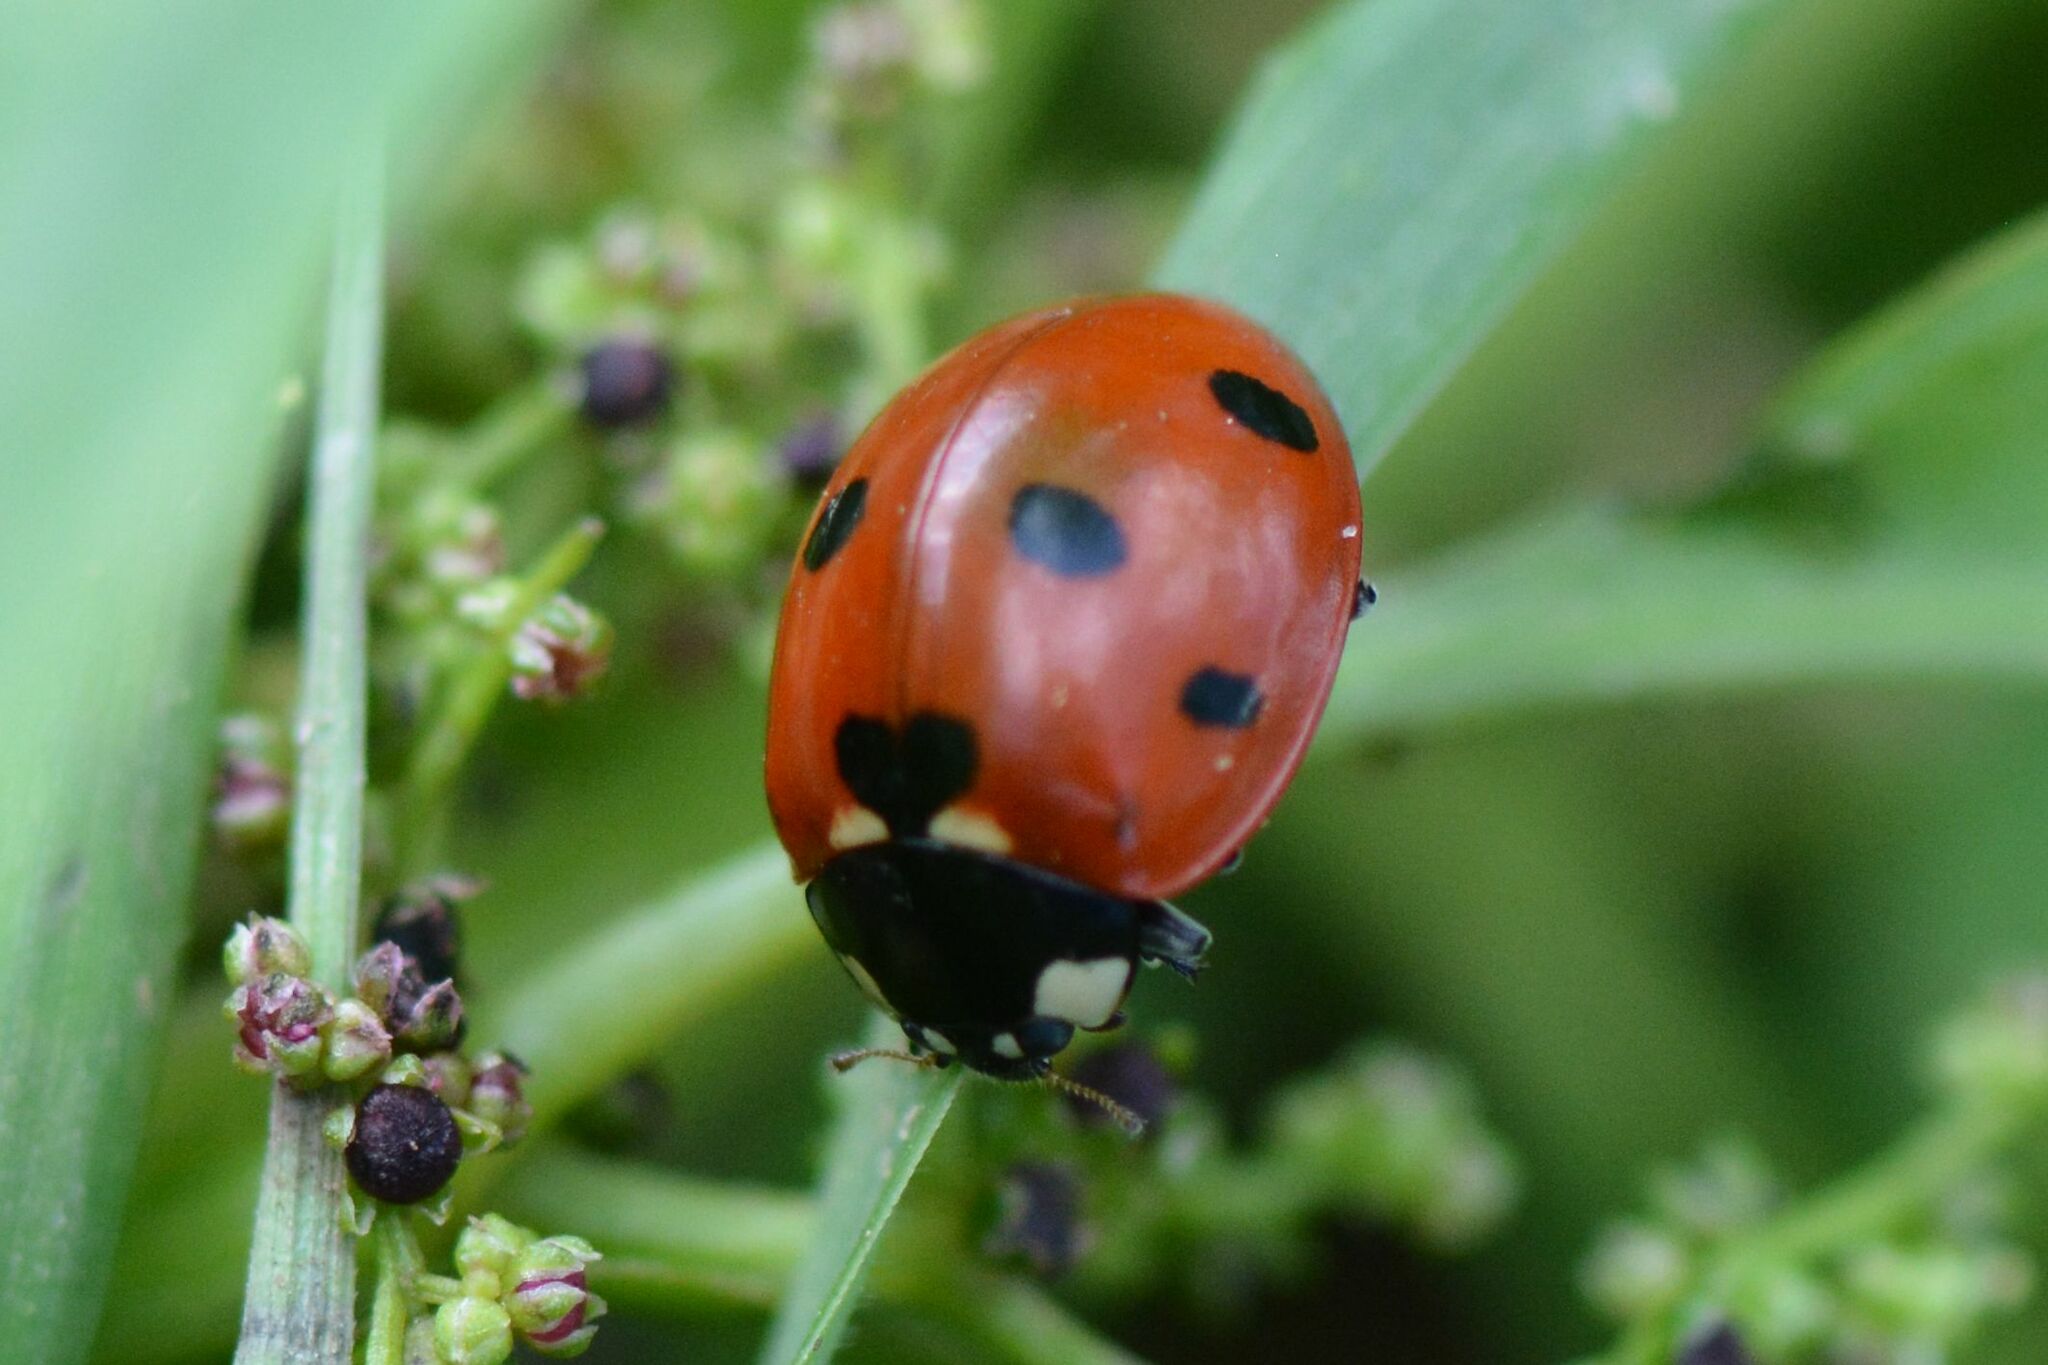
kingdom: Animalia
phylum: Arthropoda
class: Insecta
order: Coleoptera
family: Coccinellidae
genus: Coccinella
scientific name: Coccinella septempunctata
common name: Sevenspotted lady beetle
